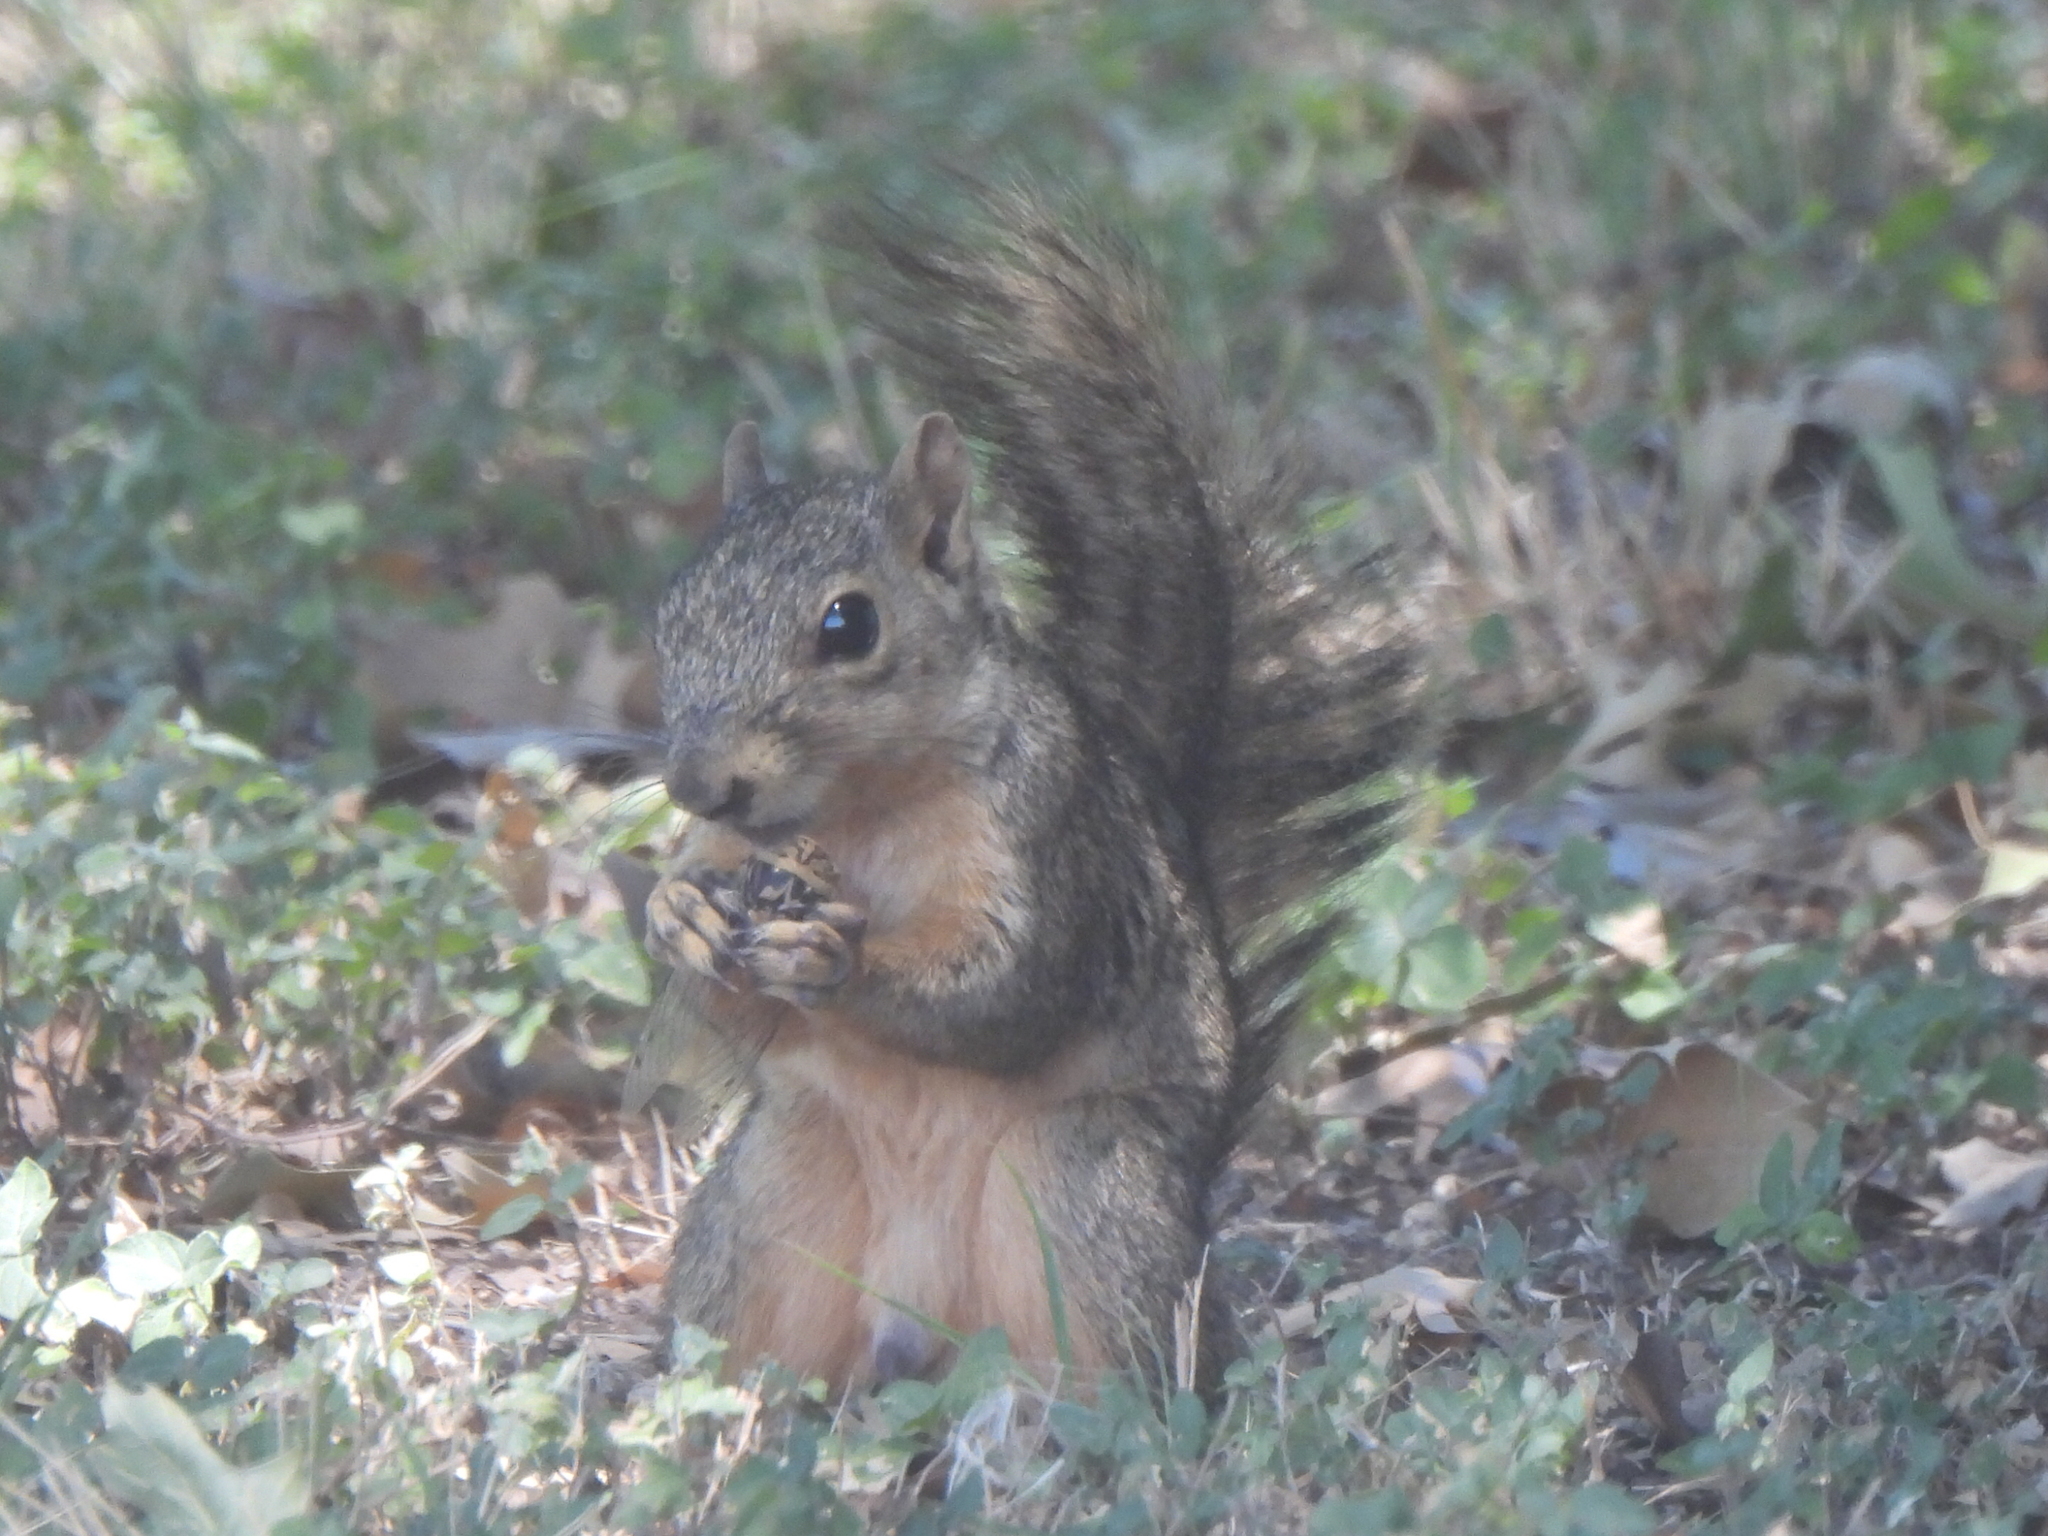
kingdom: Animalia
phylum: Chordata
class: Mammalia
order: Rodentia
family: Sciuridae
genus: Sciurus
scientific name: Sciurus niger
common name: Fox squirrel
